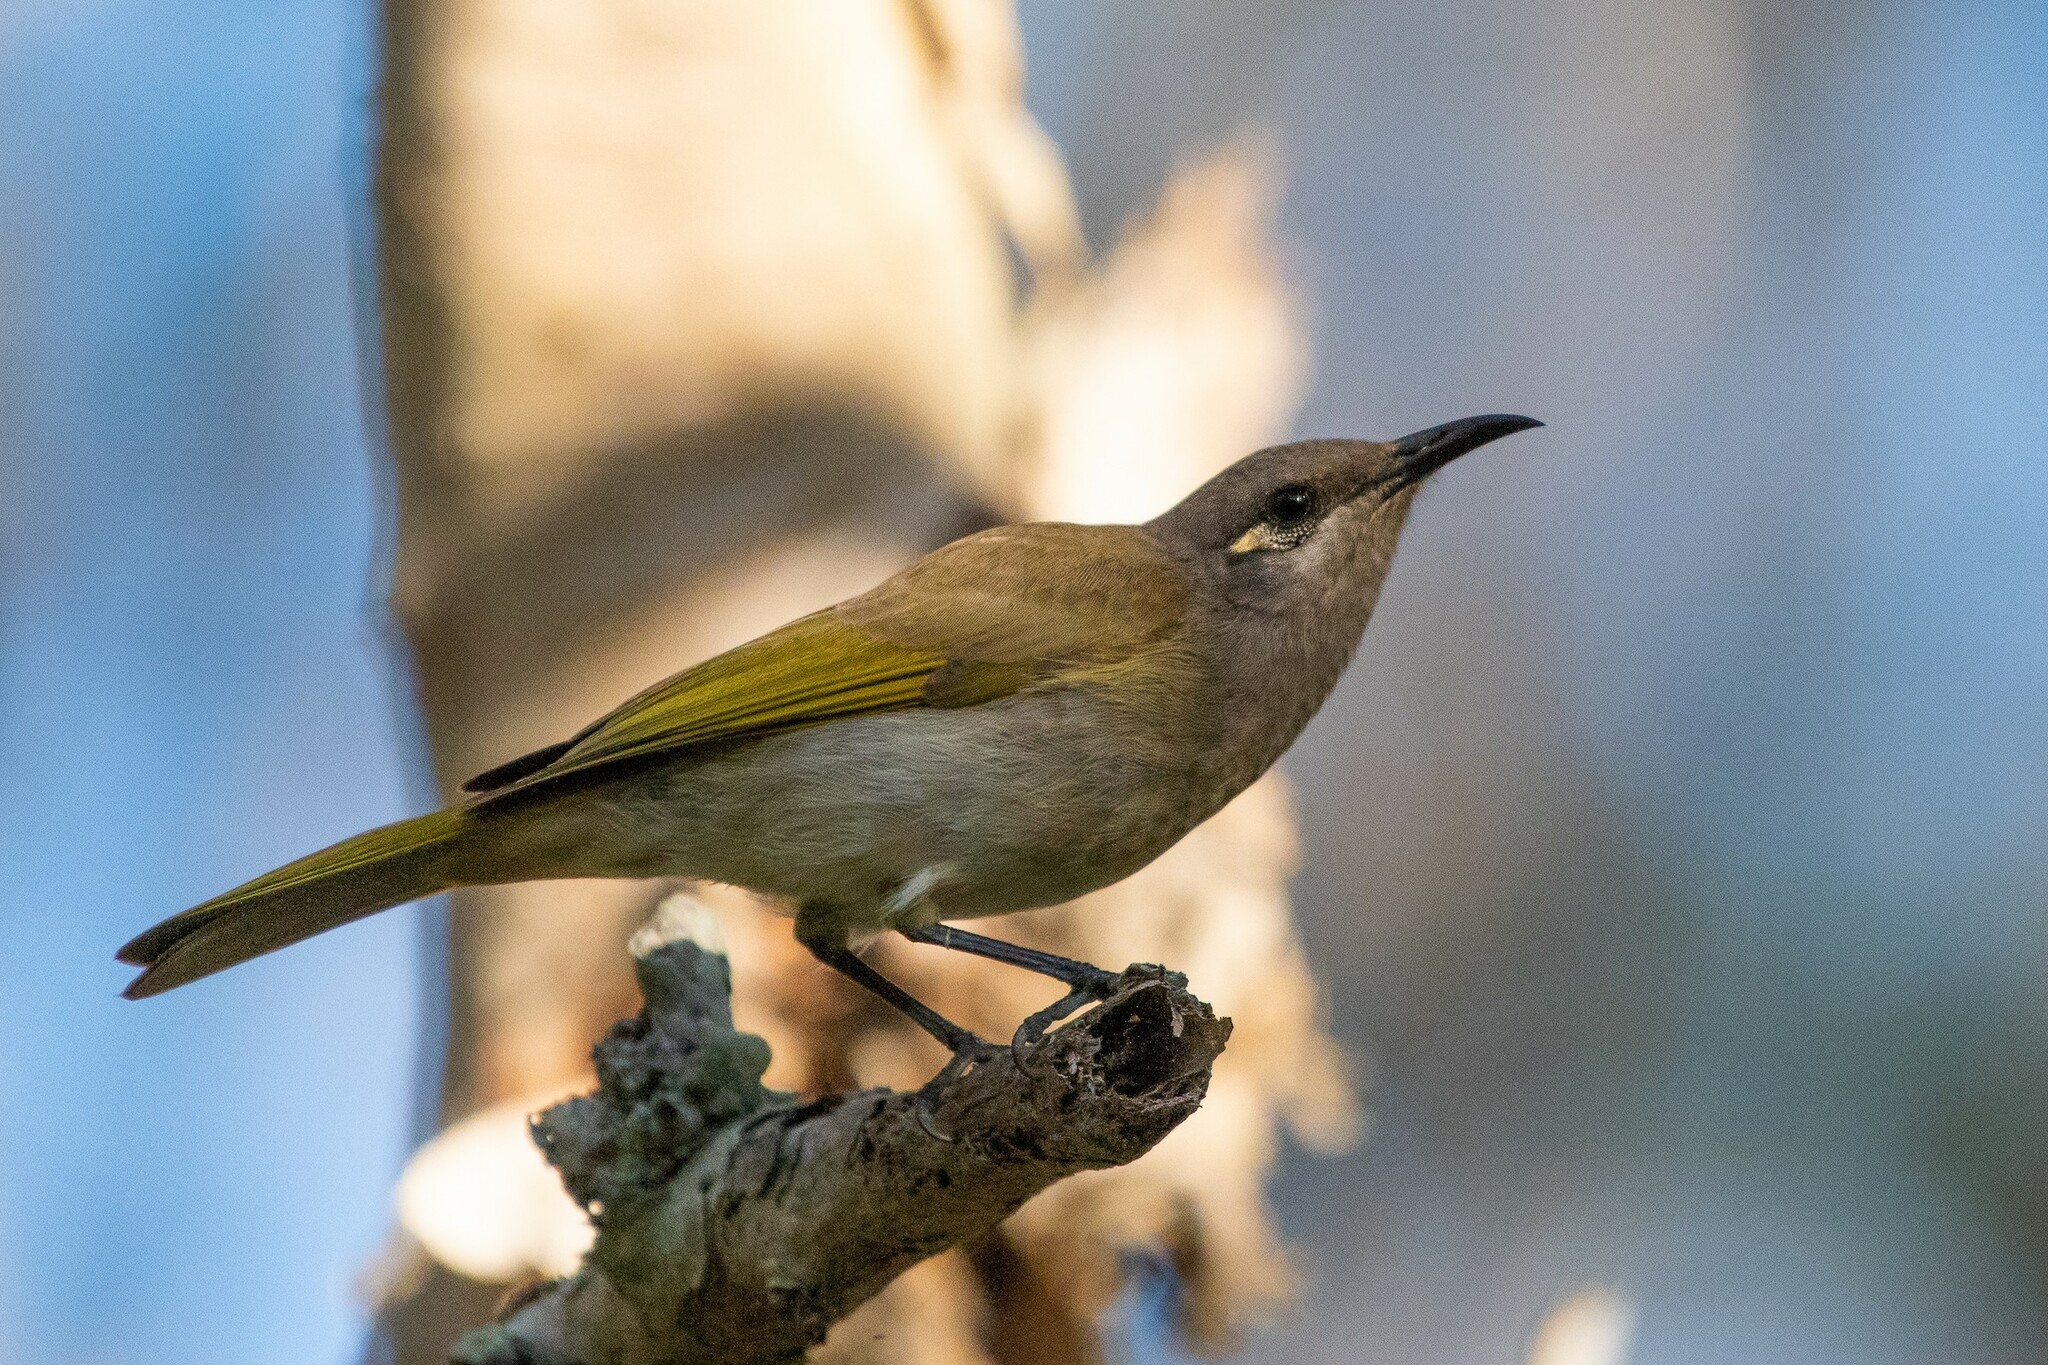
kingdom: Animalia
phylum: Chordata
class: Aves
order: Passeriformes
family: Meliphagidae
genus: Lichmera
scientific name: Lichmera indistincta
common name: Brown honeyeater
